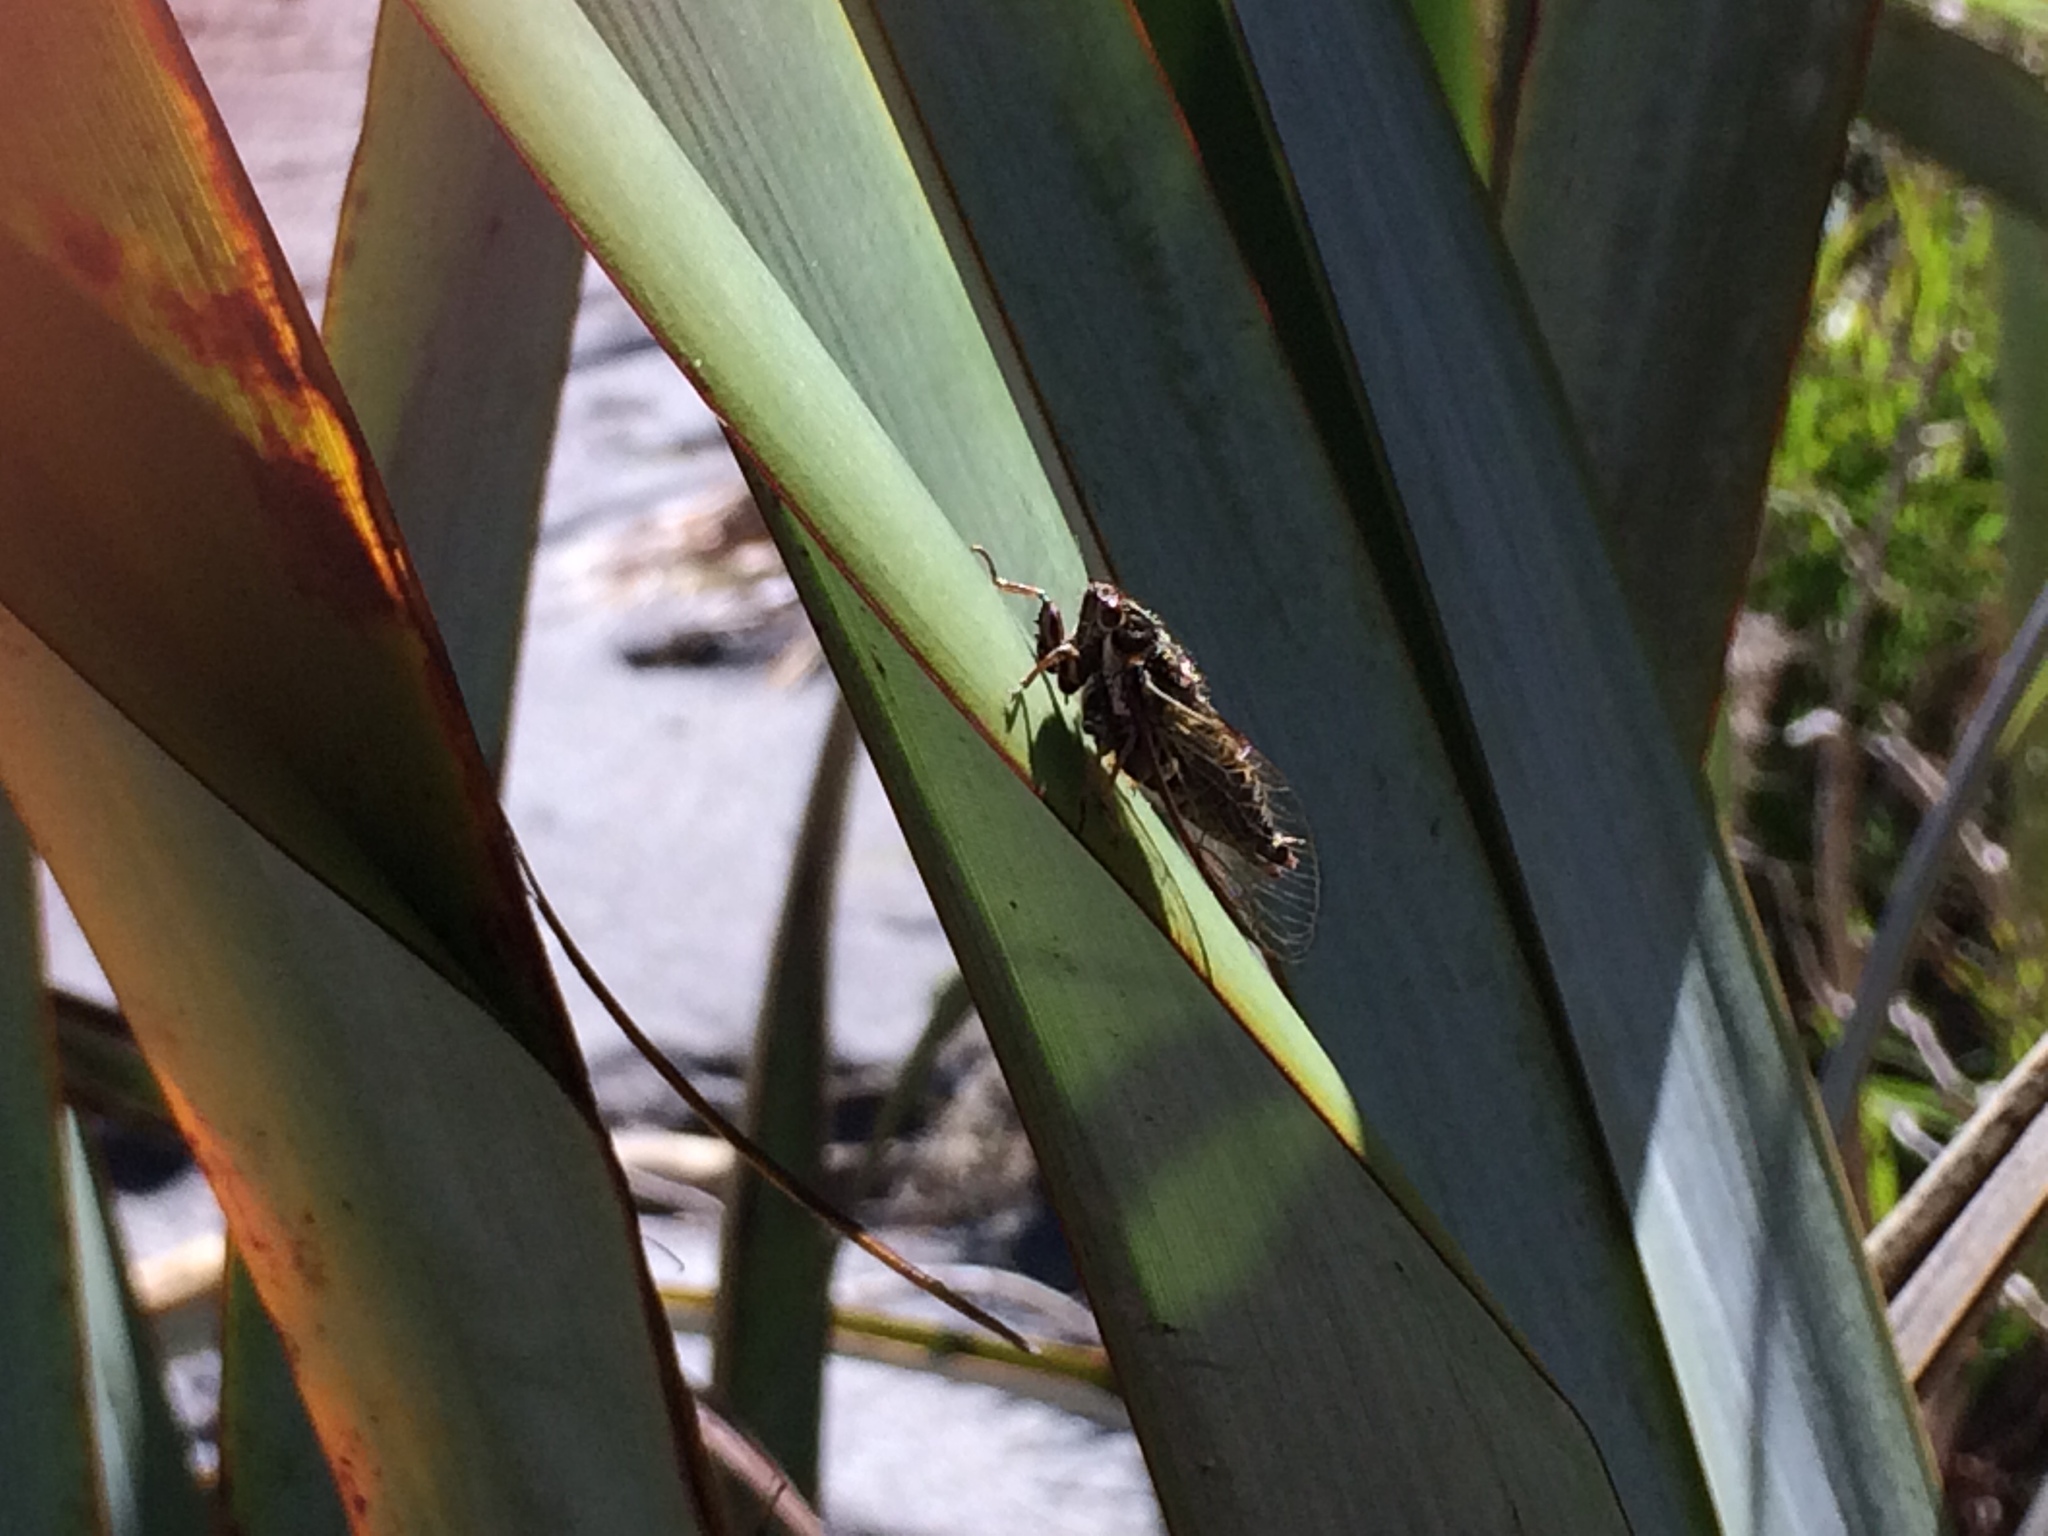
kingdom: Animalia
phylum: Arthropoda
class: Insecta
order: Hemiptera
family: Cicadidae
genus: Kikihia
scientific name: Kikihia muta
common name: Variable cicada
